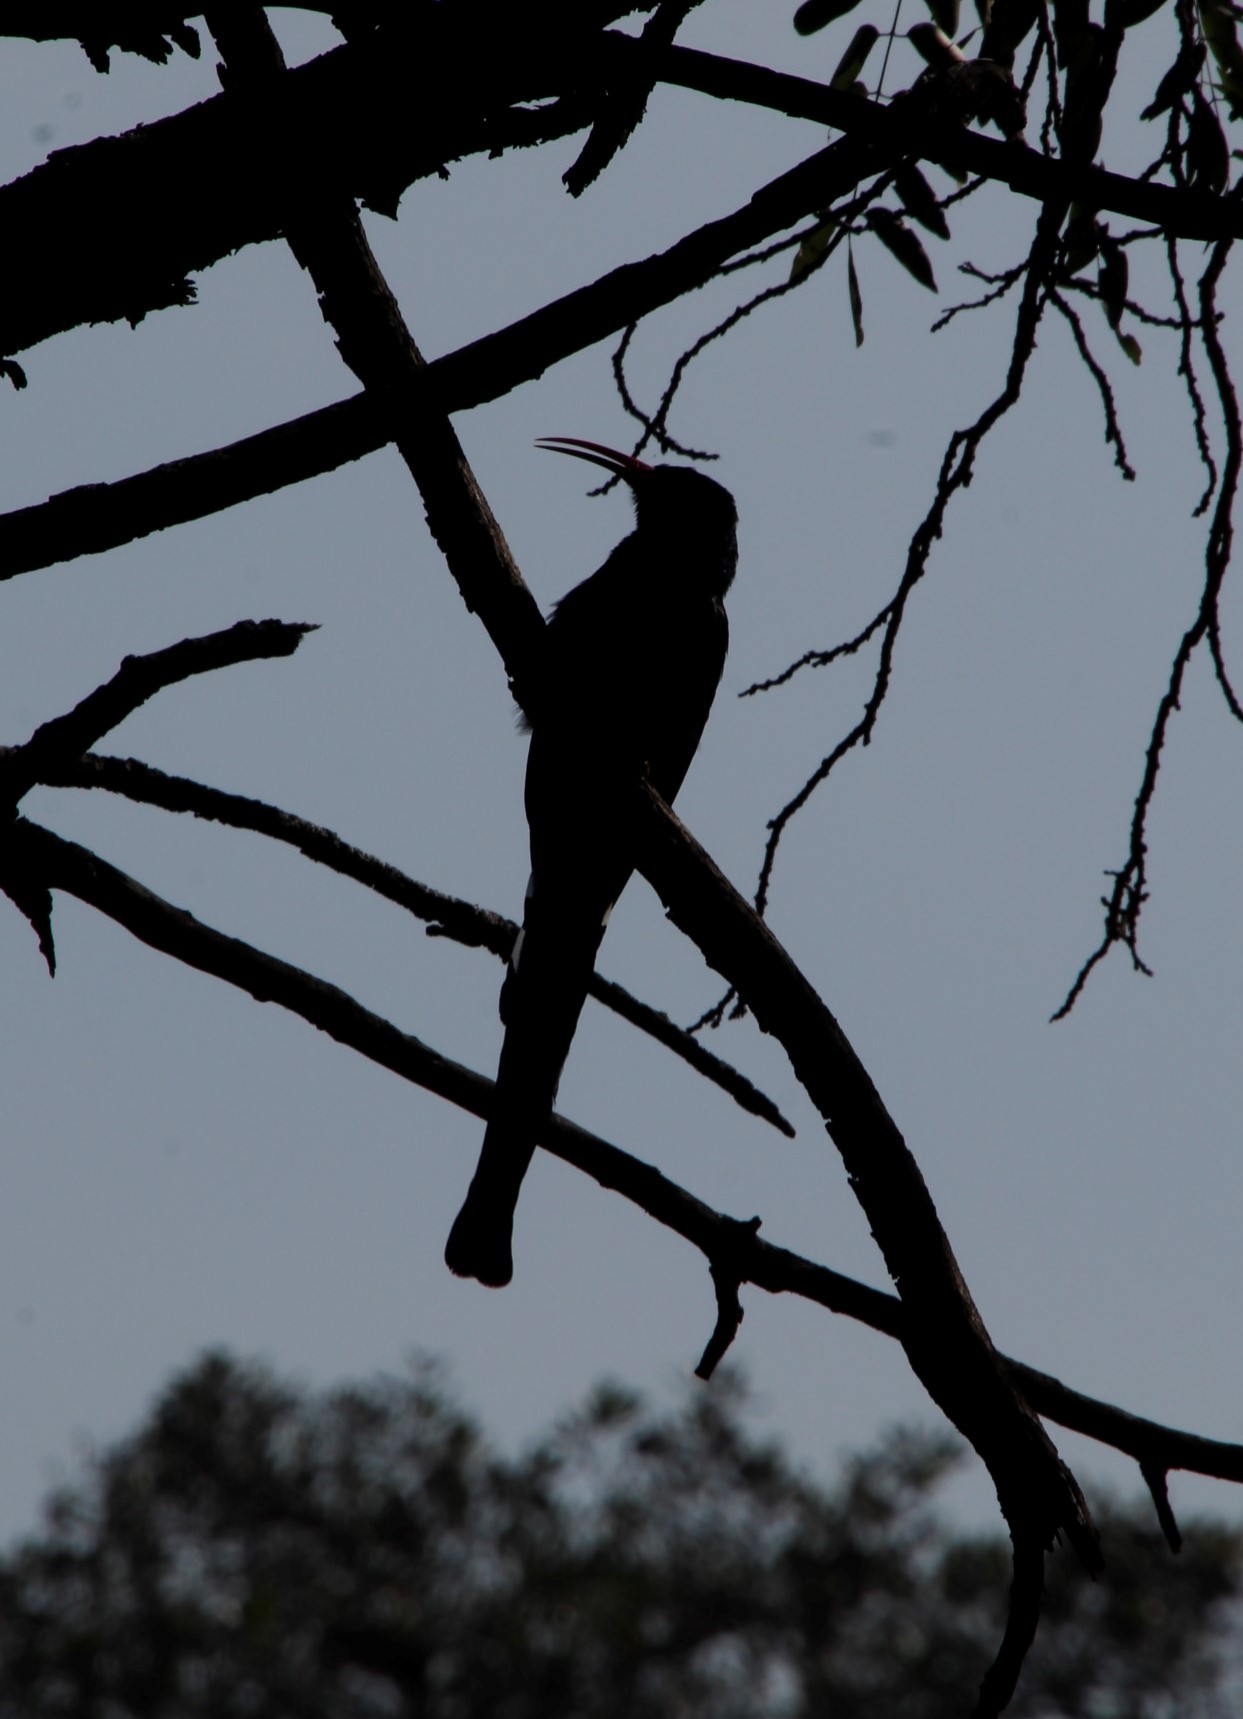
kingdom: Animalia
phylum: Chordata
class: Aves
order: Bucerotiformes
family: Phoeniculidae
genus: Phoeniculus
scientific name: Phoeniculus purpureus
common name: Green woodhoopoe
